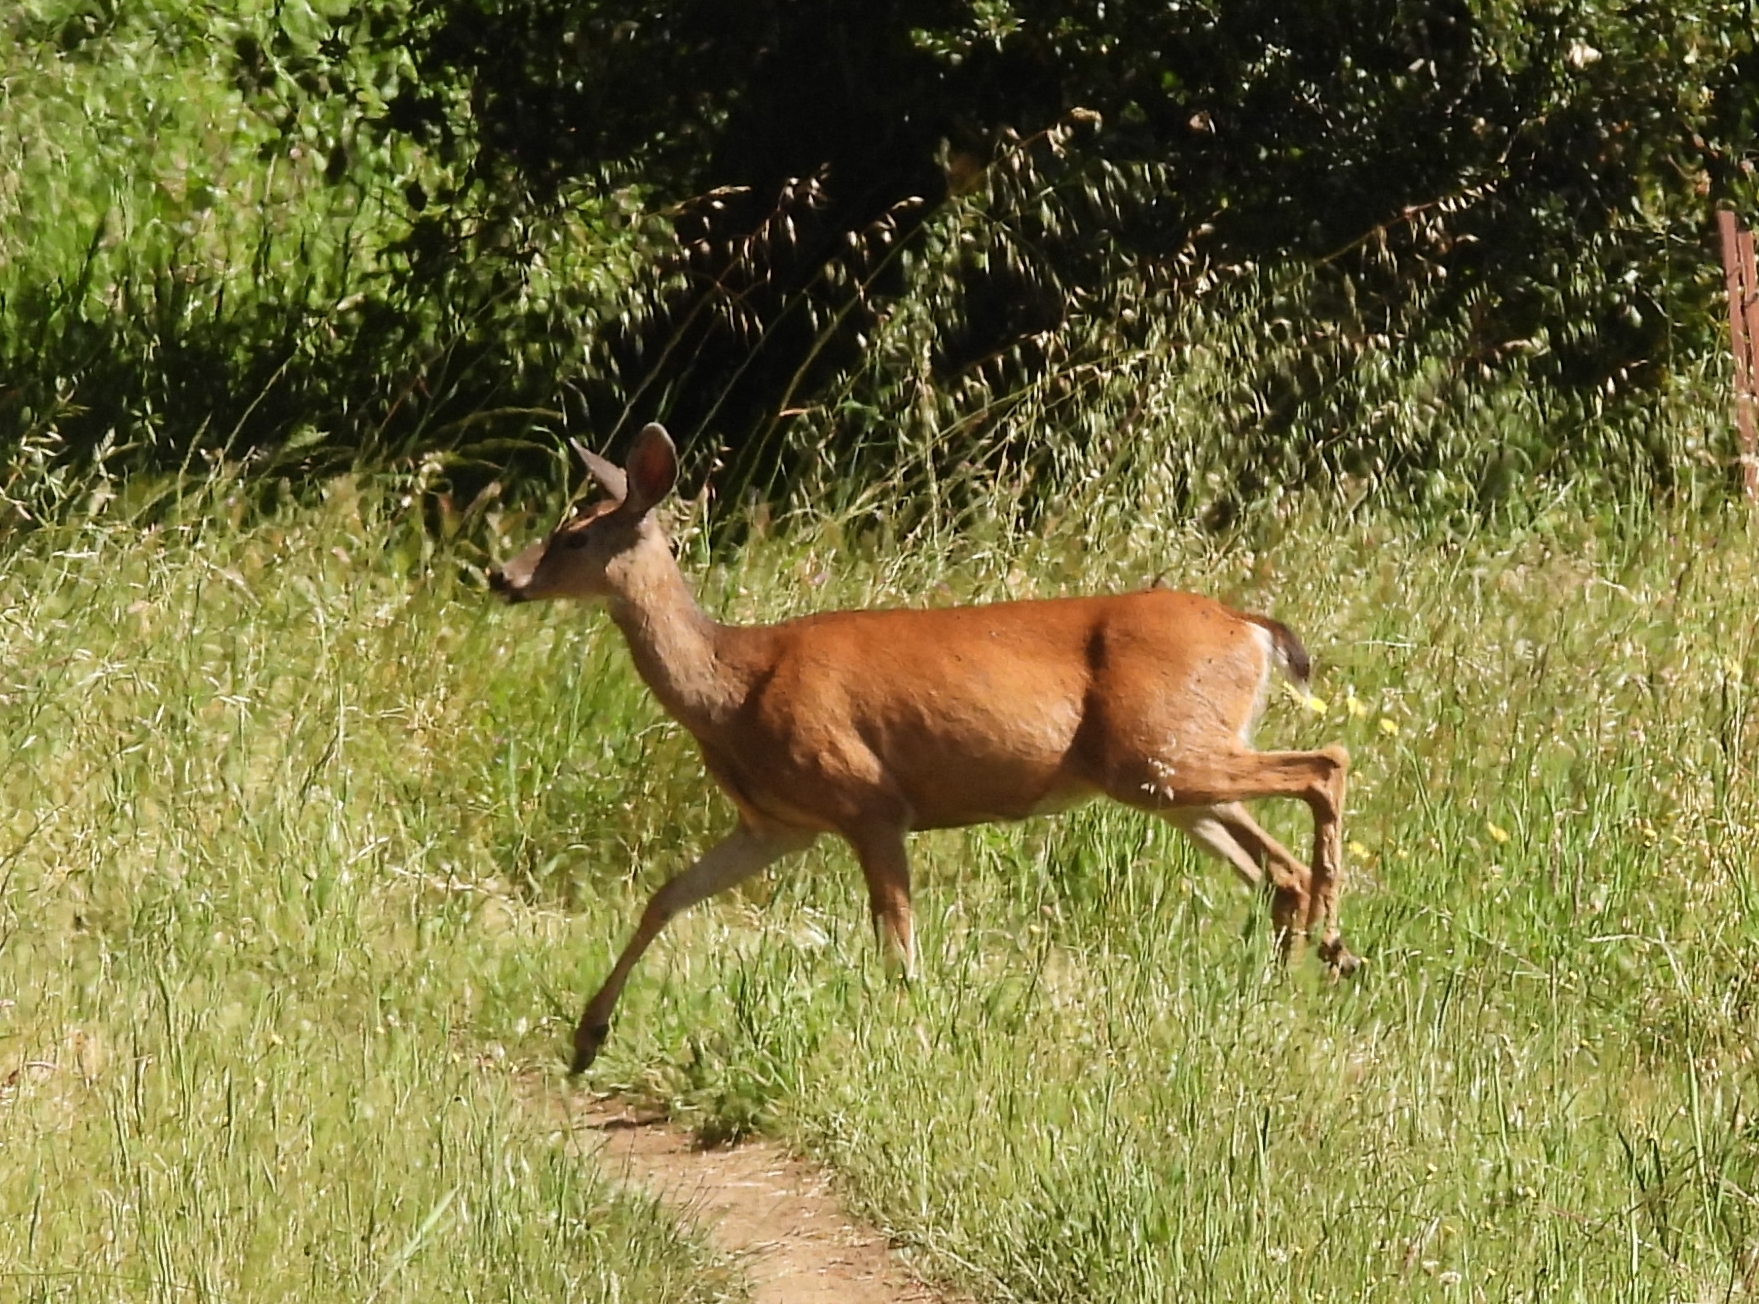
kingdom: Animalia
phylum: Chordata
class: Mammalia
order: Artiodactyla
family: Cervidae
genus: Odocoileus
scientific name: Odocoileus hemionus
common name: Mule deer
